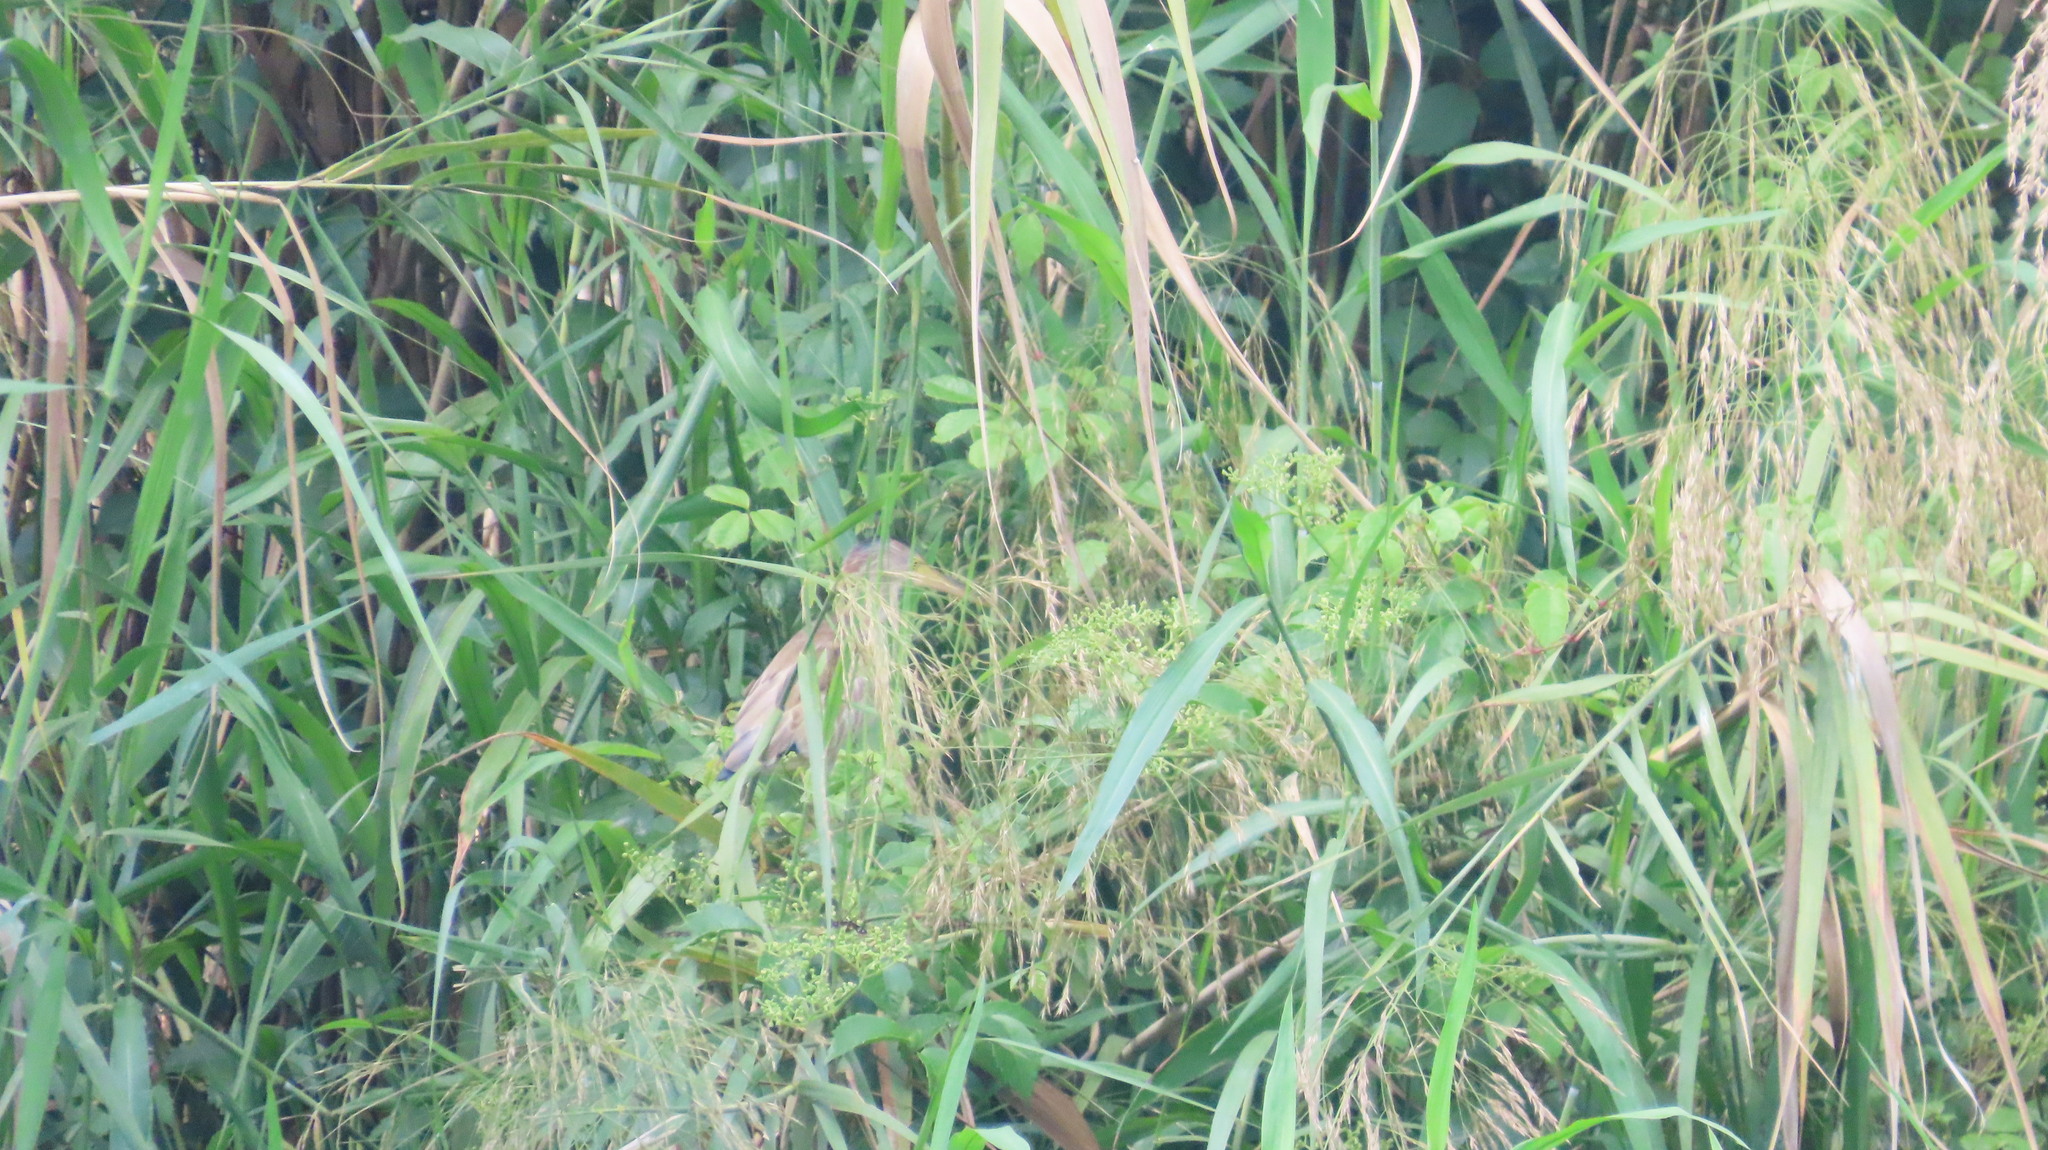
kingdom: Animalia
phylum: Chordata
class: Aves
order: Pelecaniformes
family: Ardeidae
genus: Ixobrychus
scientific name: Ixobrychus sinensis
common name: Yellow bittern
